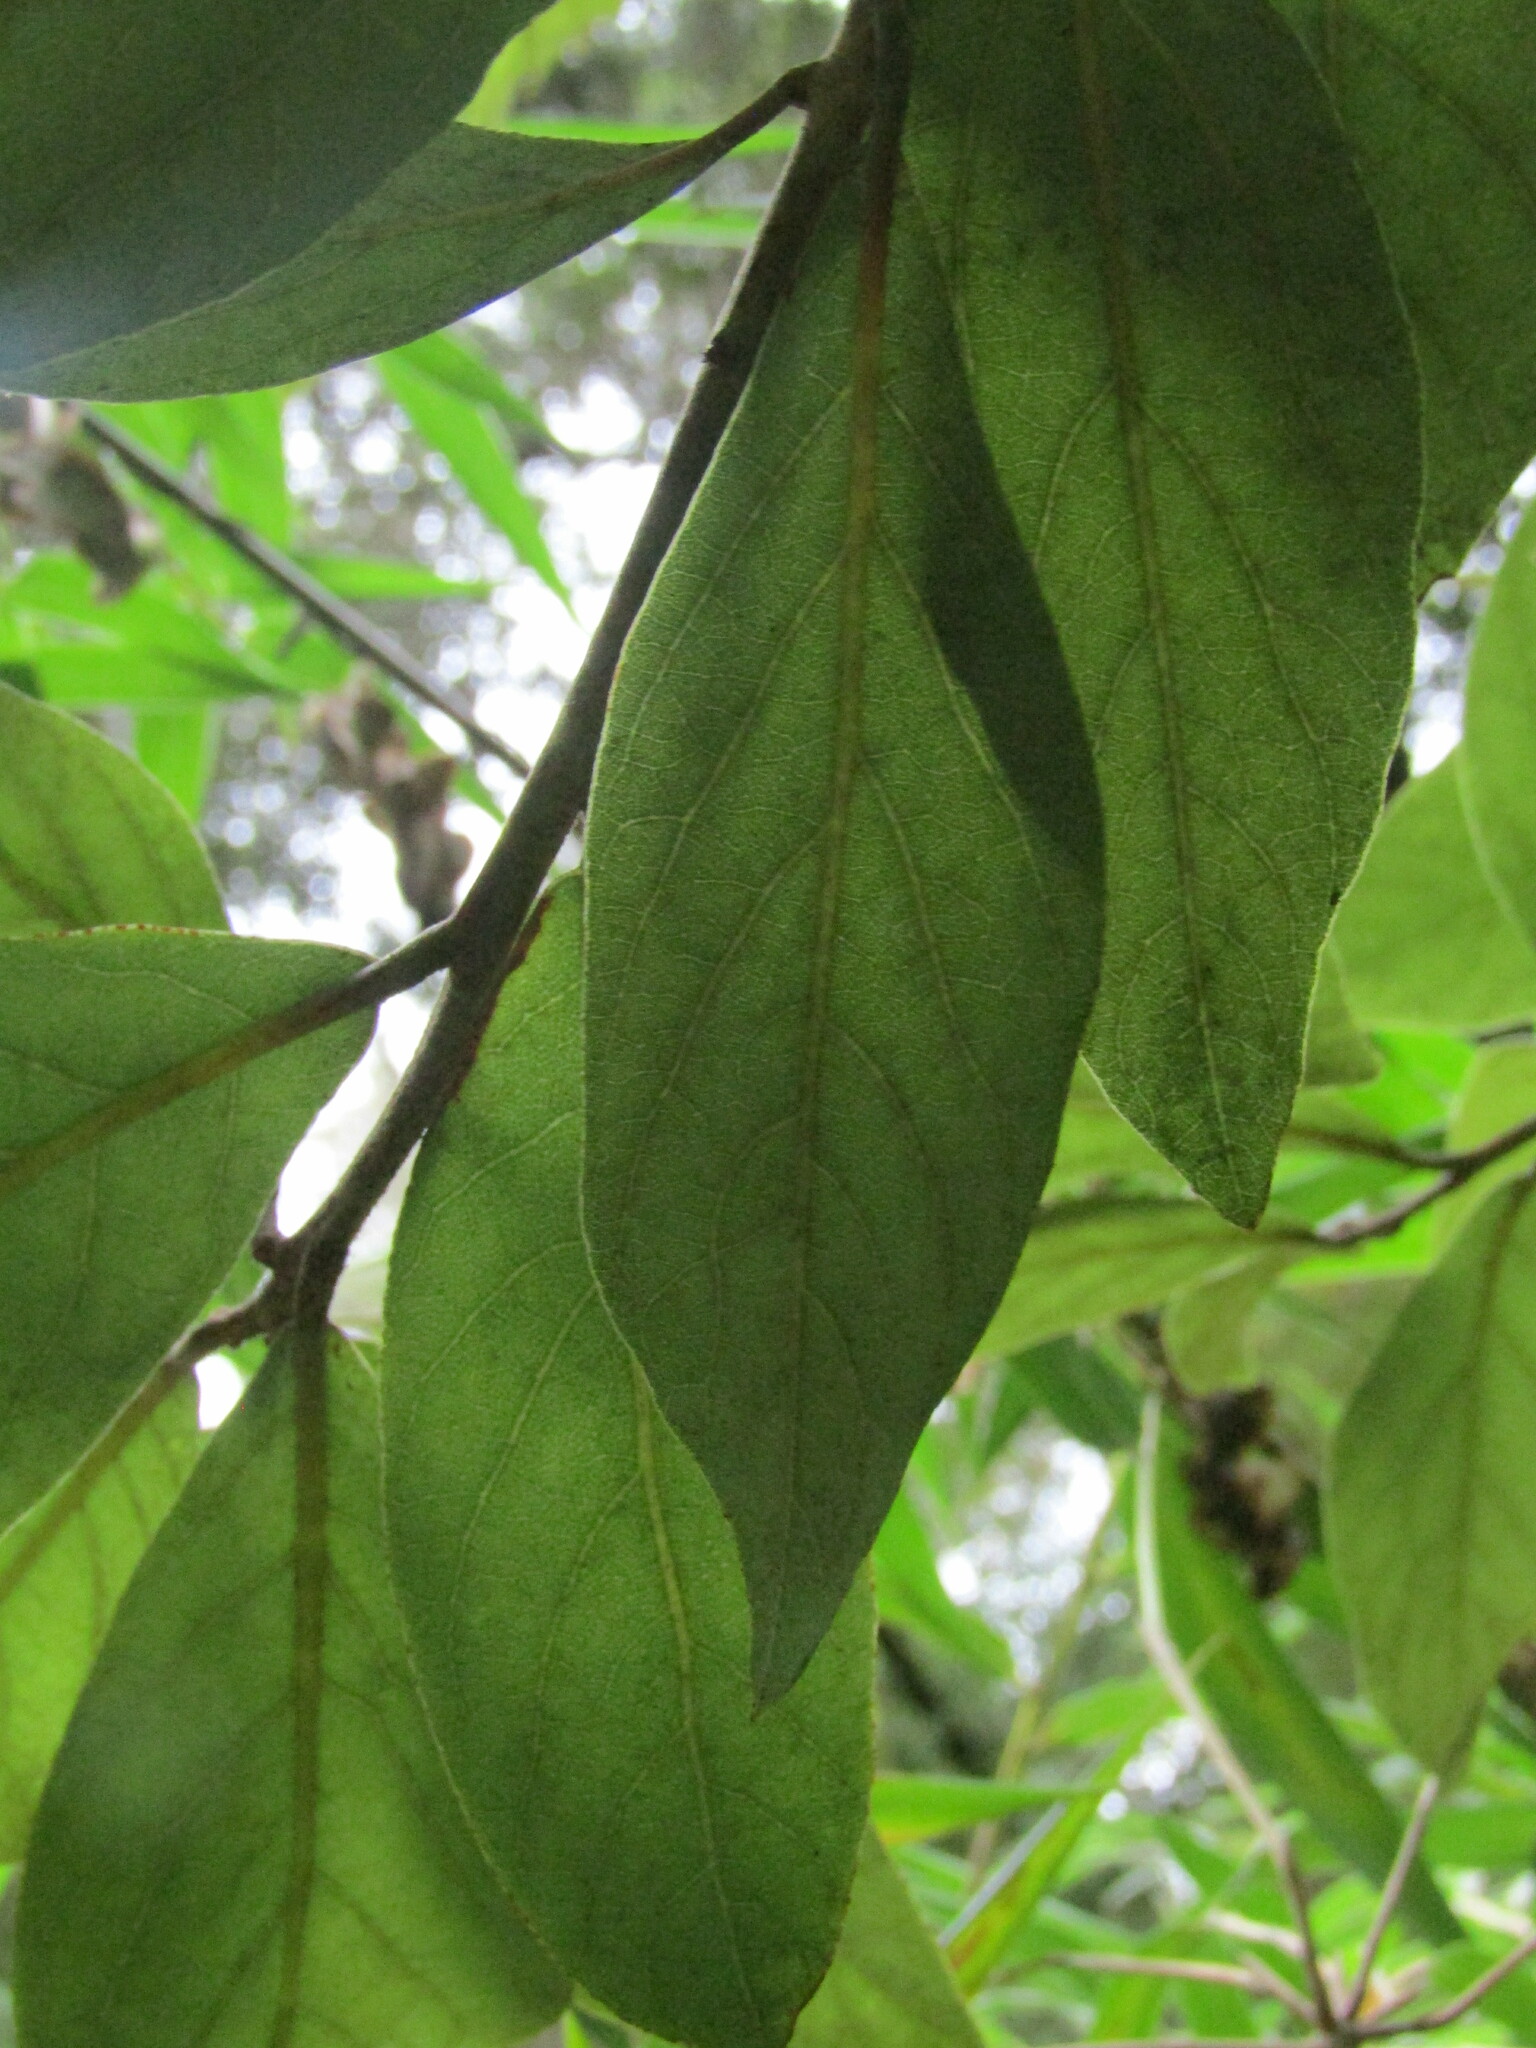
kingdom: Plantae
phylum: Tracheophyta
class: Magnoliopsida
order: Laurales
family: Lauraceae
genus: Persea
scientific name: Persea lingue
